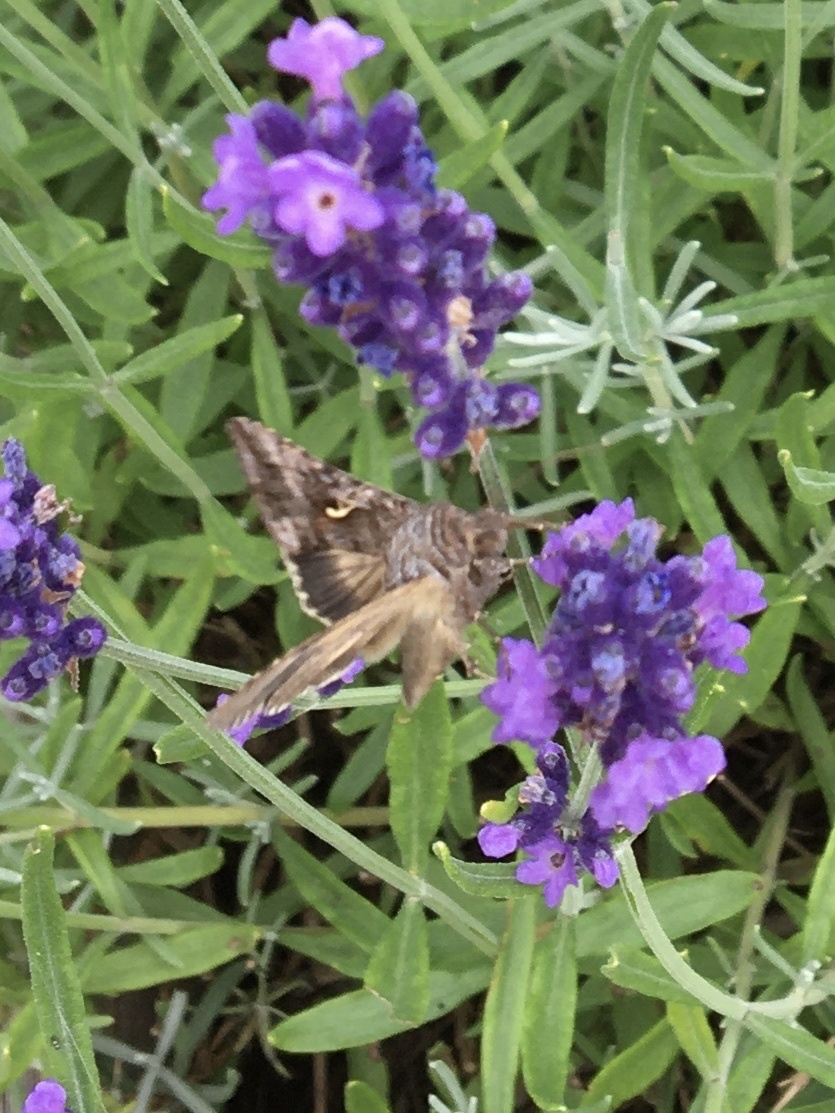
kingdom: Animalia
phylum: Arthropoda
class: Insecta
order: Lepidoptera
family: Noctuidae
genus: Autographa
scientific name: Autographa gamma
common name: Silver y
